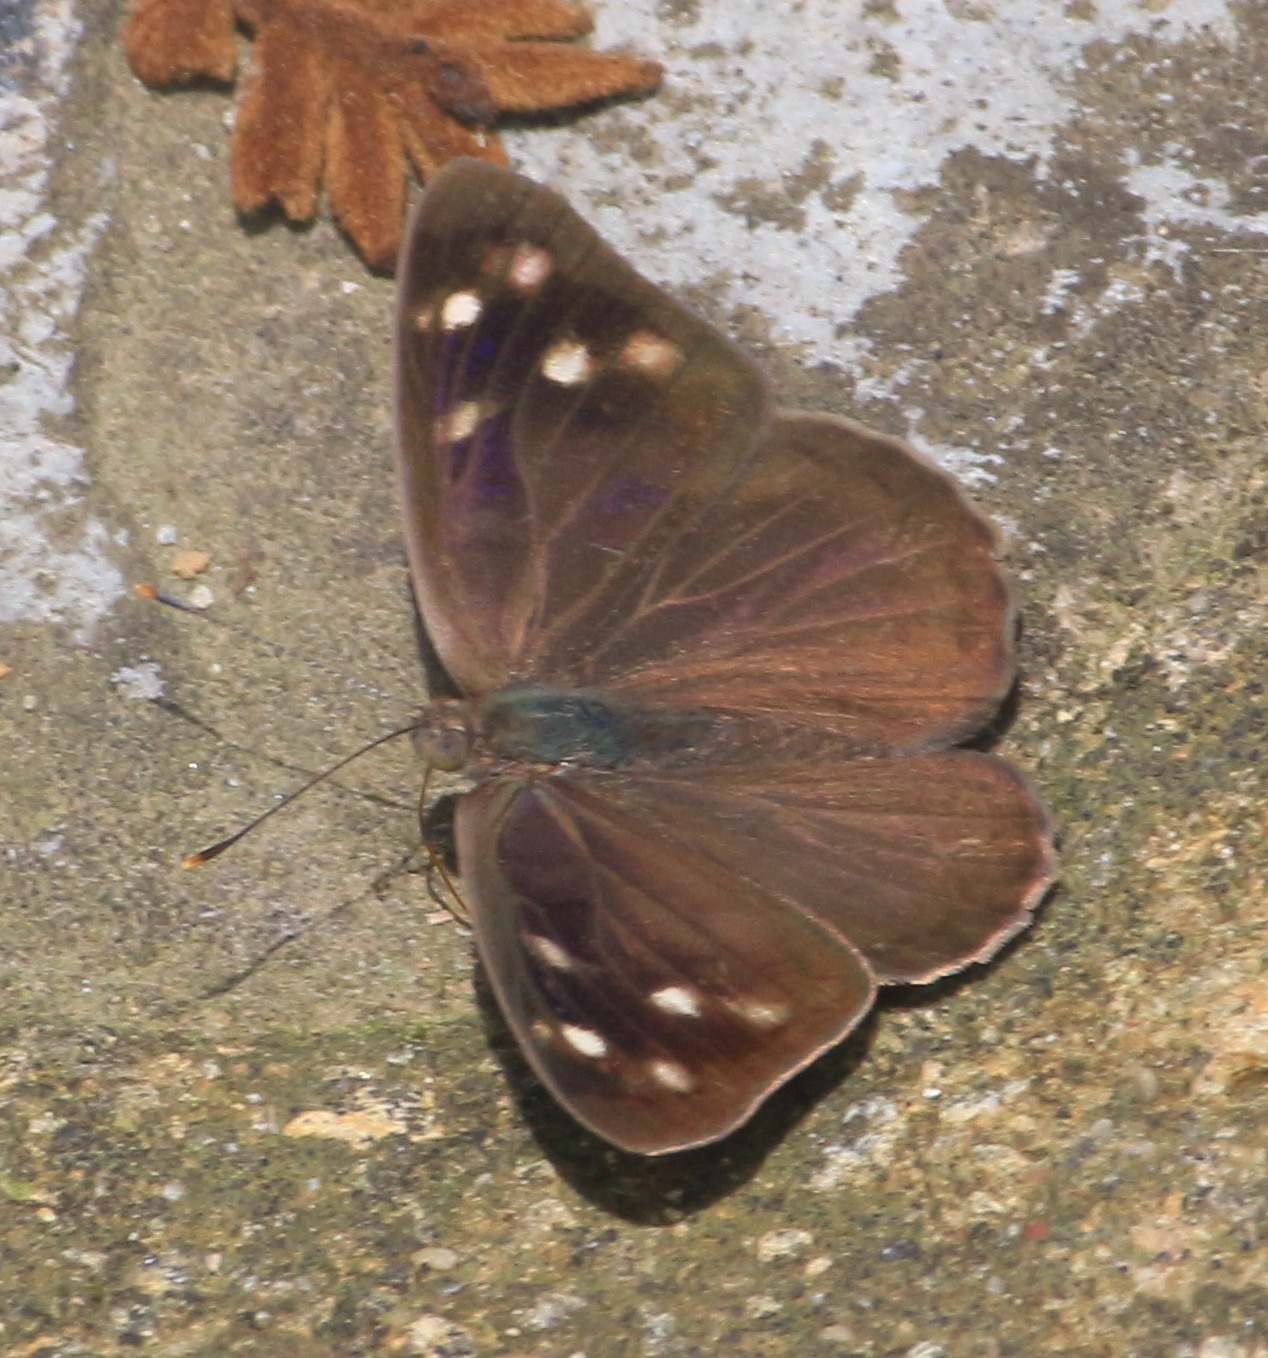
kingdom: Animalia
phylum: Arthropoda
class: Insecta
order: Lepidoptera
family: Nymphalidae
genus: Eunica
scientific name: Eunica monima
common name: Dingy purplewing
